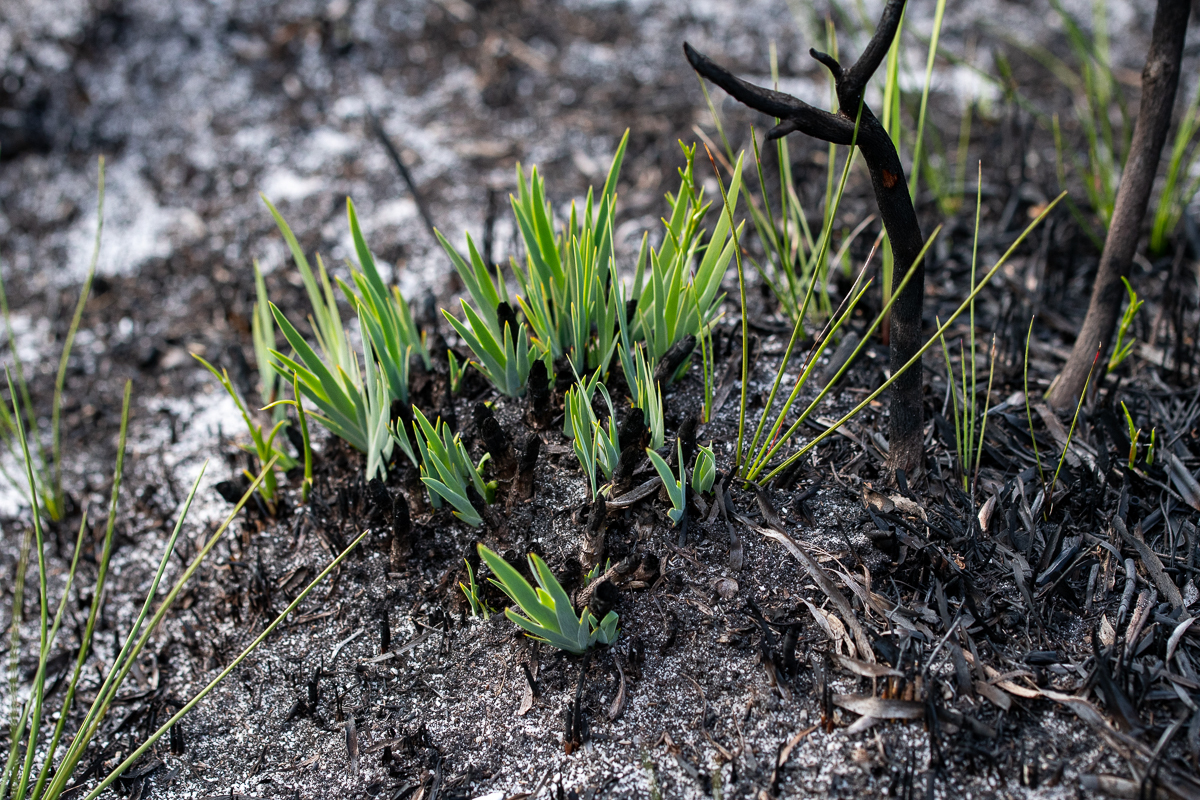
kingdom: Plantae
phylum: Tracheophyta
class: Liliopsida
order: Asparagales
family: Iridaceae
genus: Nivenia
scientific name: Nivenia stokoei
